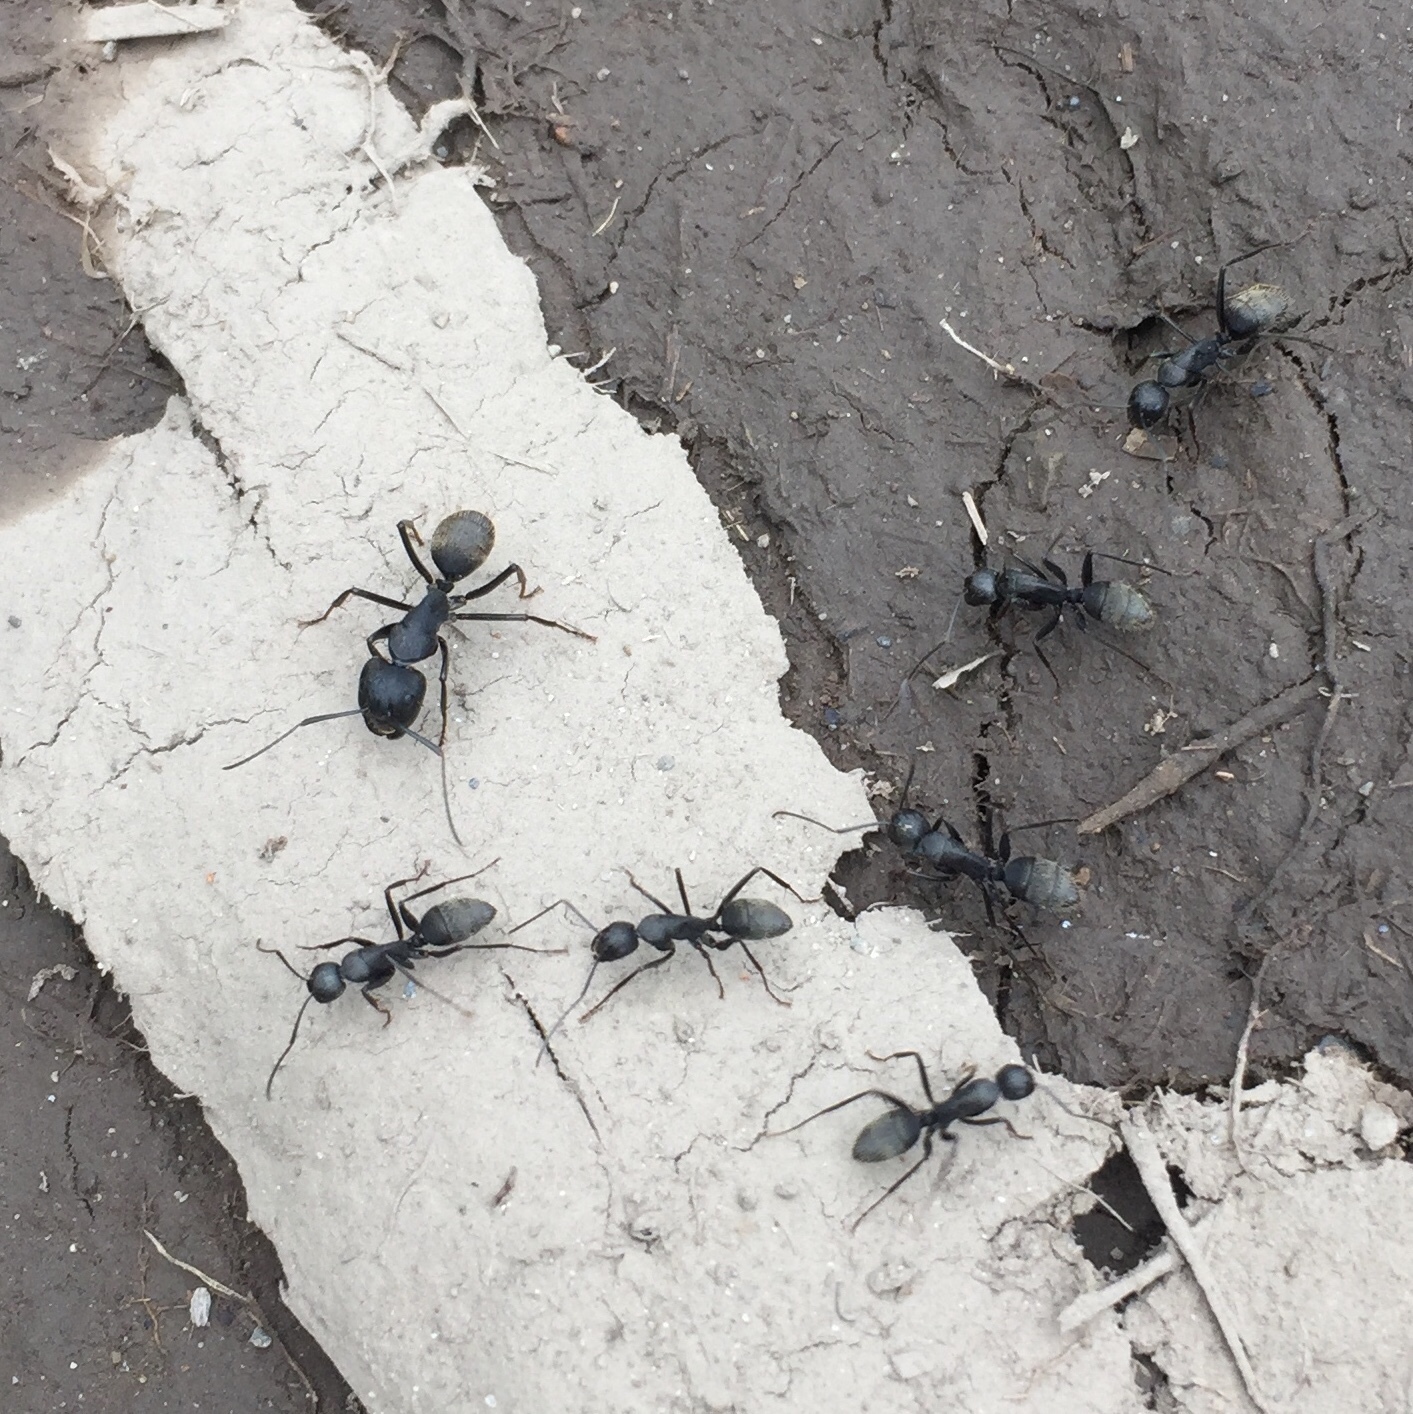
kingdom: Animalia
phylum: Arthropoda
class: Insecta
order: Hymenoptera
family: Formicidae
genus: Camponotus
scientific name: Camponotus japonicus
